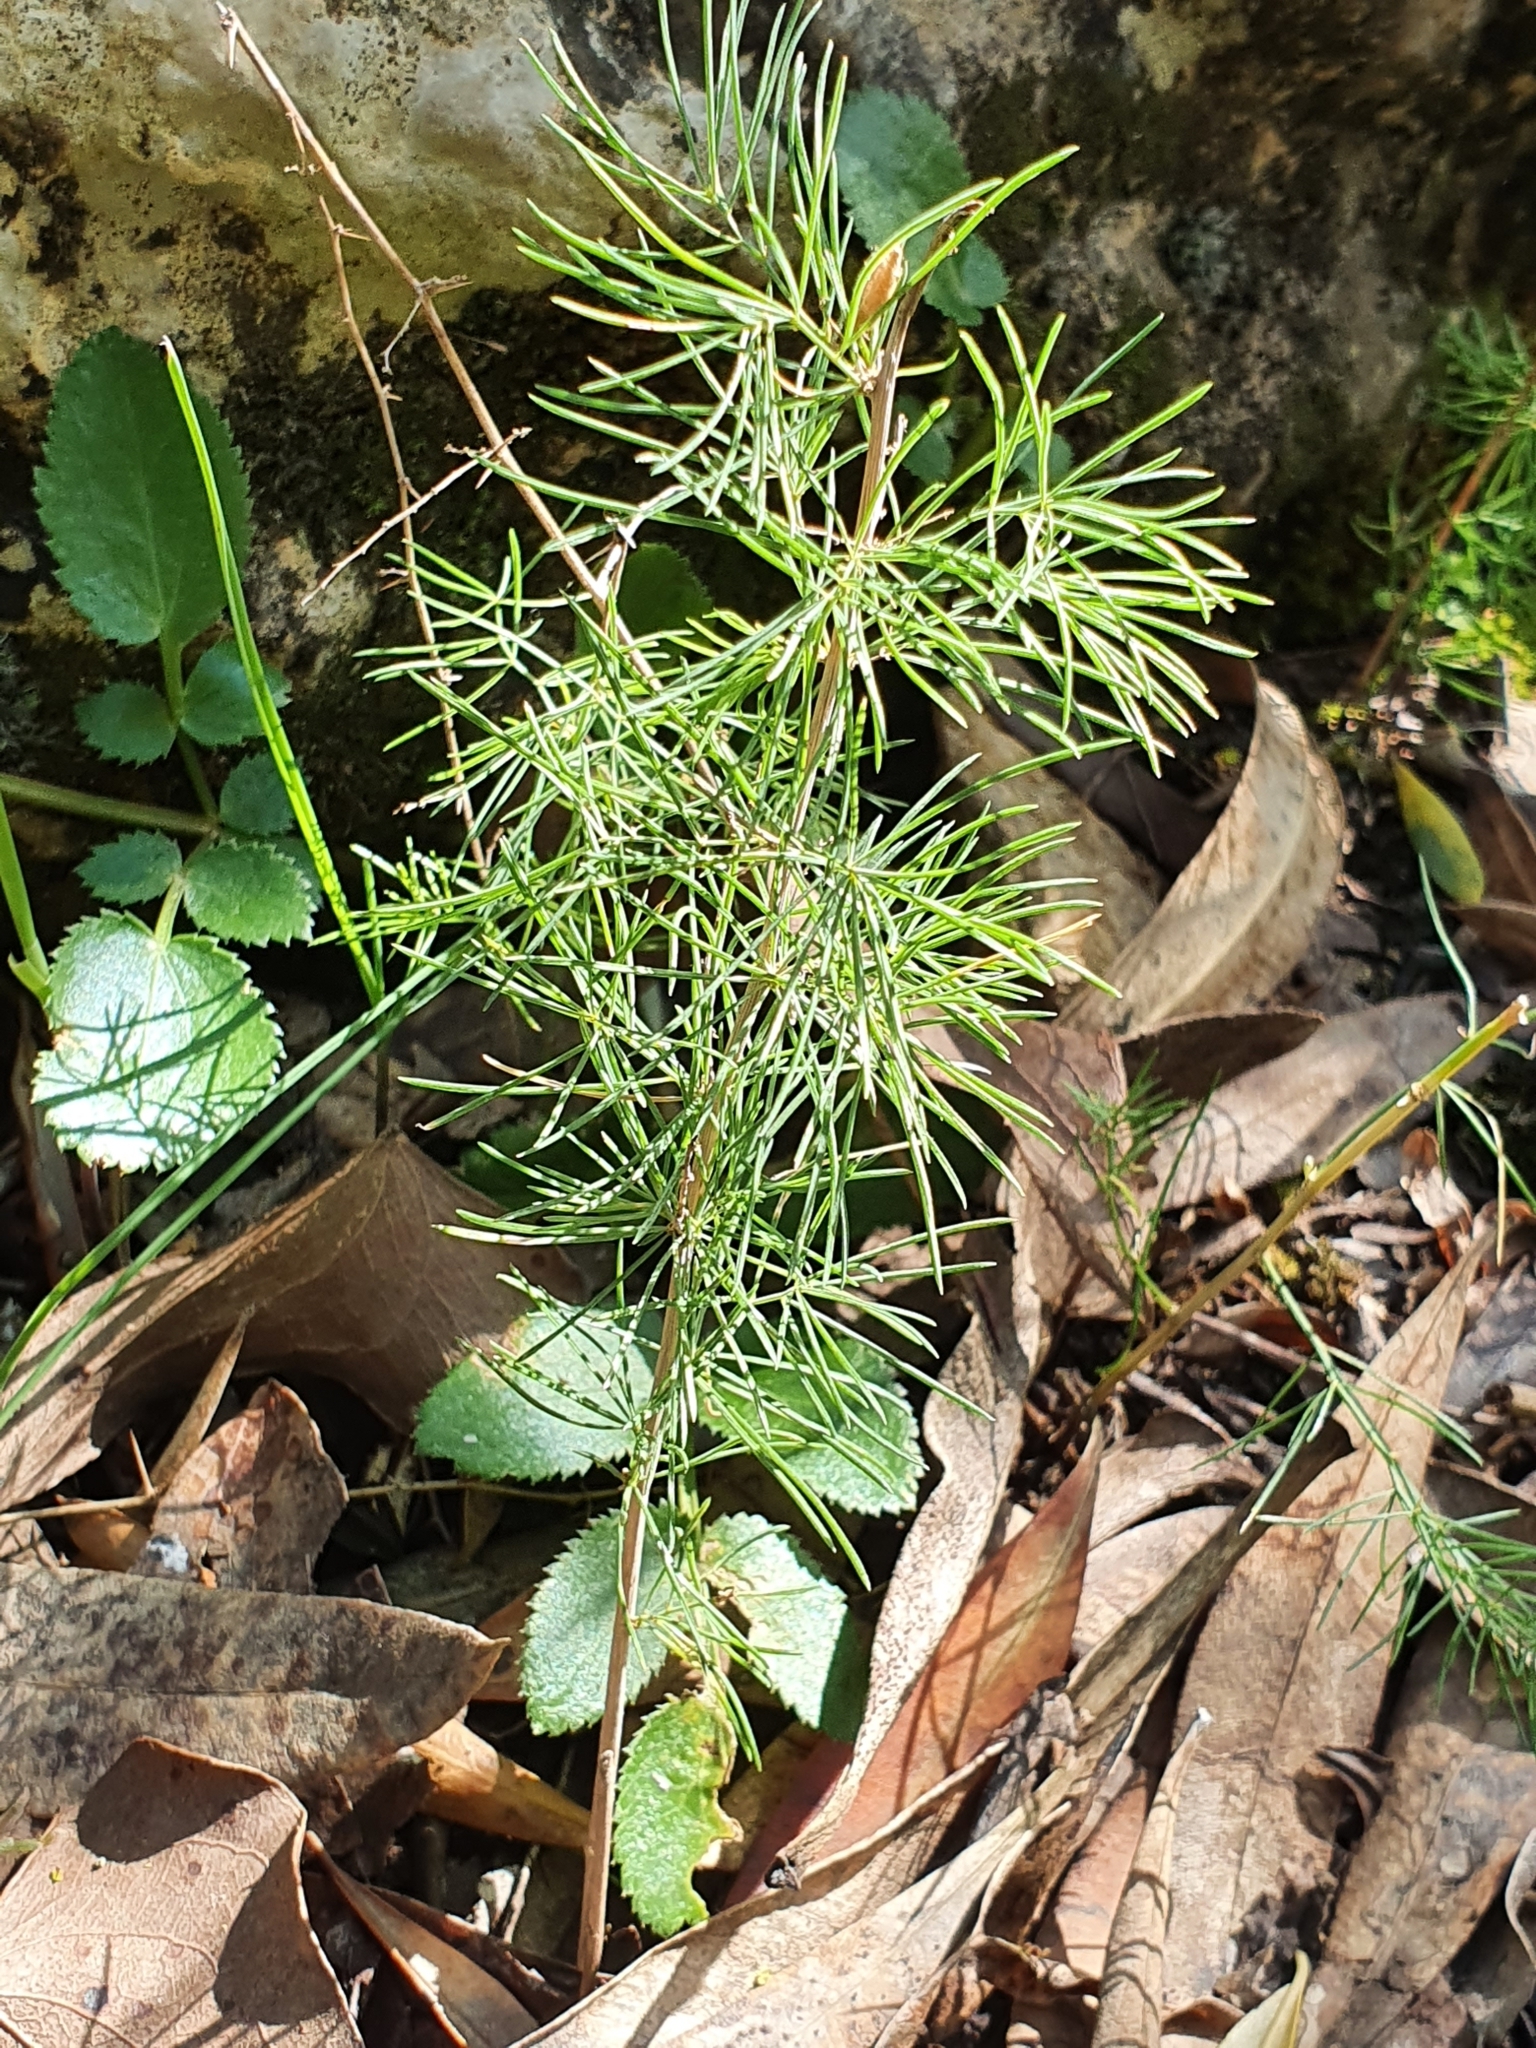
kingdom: Plantae
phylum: Tracheophyta
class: Liliopsida
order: Asparagales
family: Asparagaceae
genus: Asparagus
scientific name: Asparagus albus
